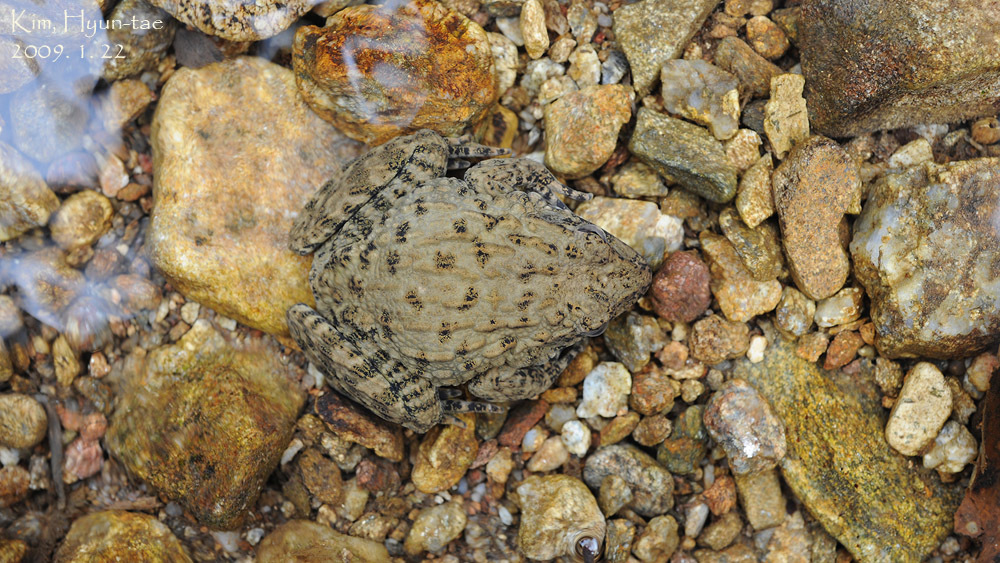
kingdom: Animalia
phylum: Chordata
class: Amphibia
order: Anura
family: Ranidae
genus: Glandirana
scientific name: Glandirana emeljanovi
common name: Northeast china rough-skinned frog
